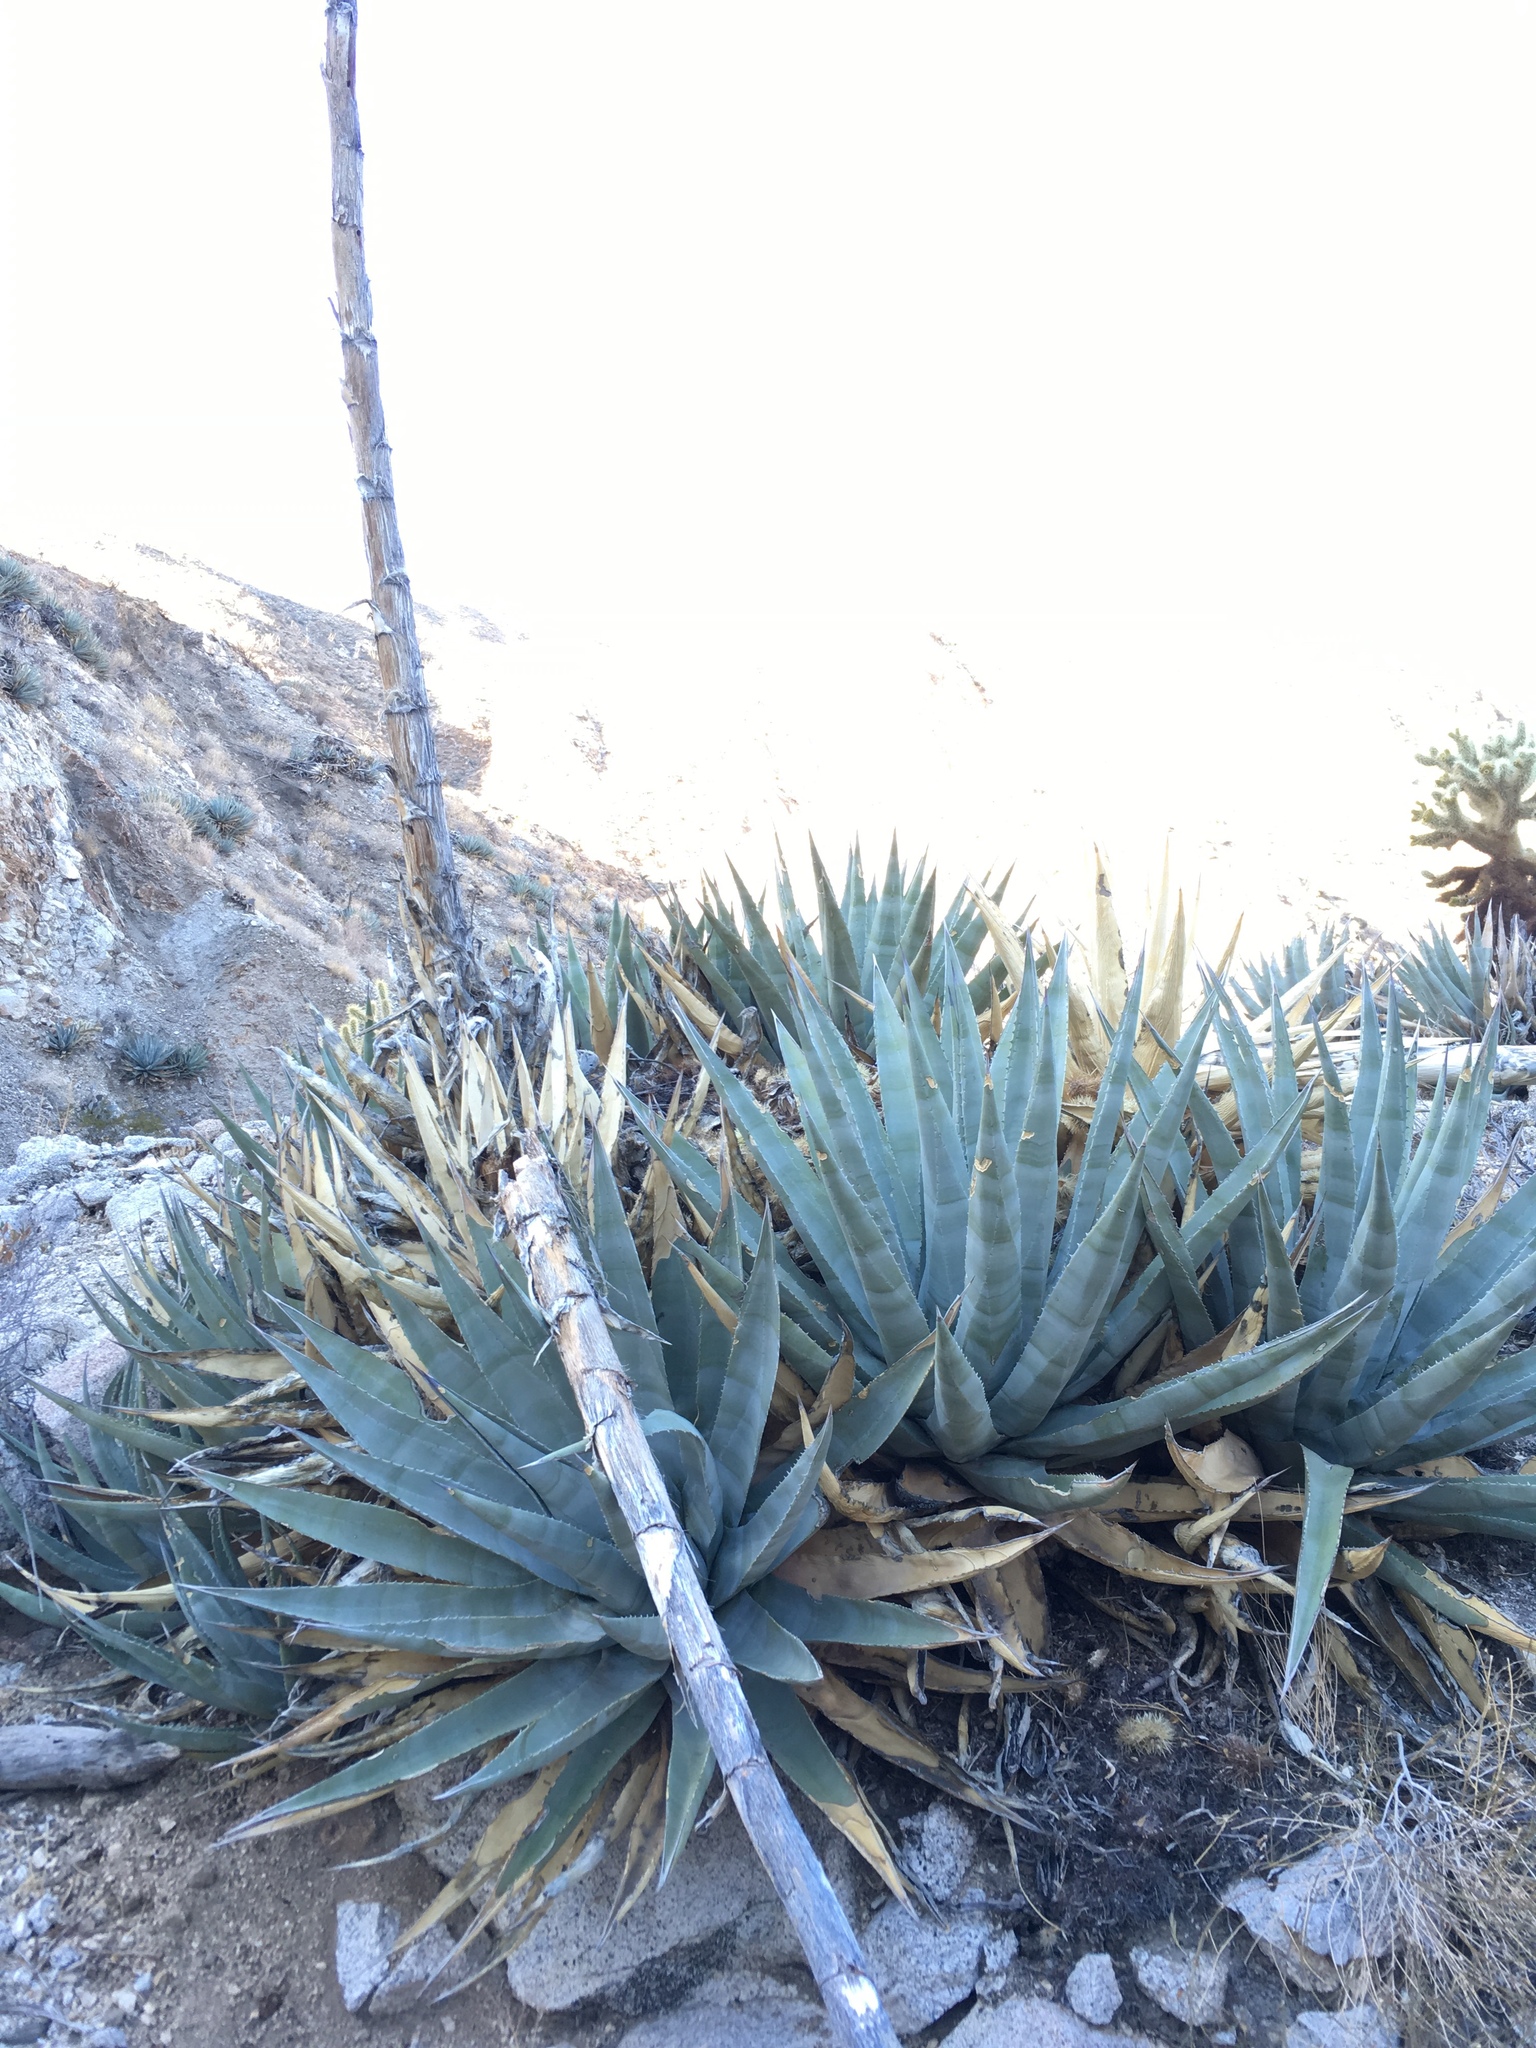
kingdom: Plantae
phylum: Tracheophyta
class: Liliopsida
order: Asparagales
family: Asparagaceae
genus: Agave
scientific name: Agave deserti
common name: Desert agave
